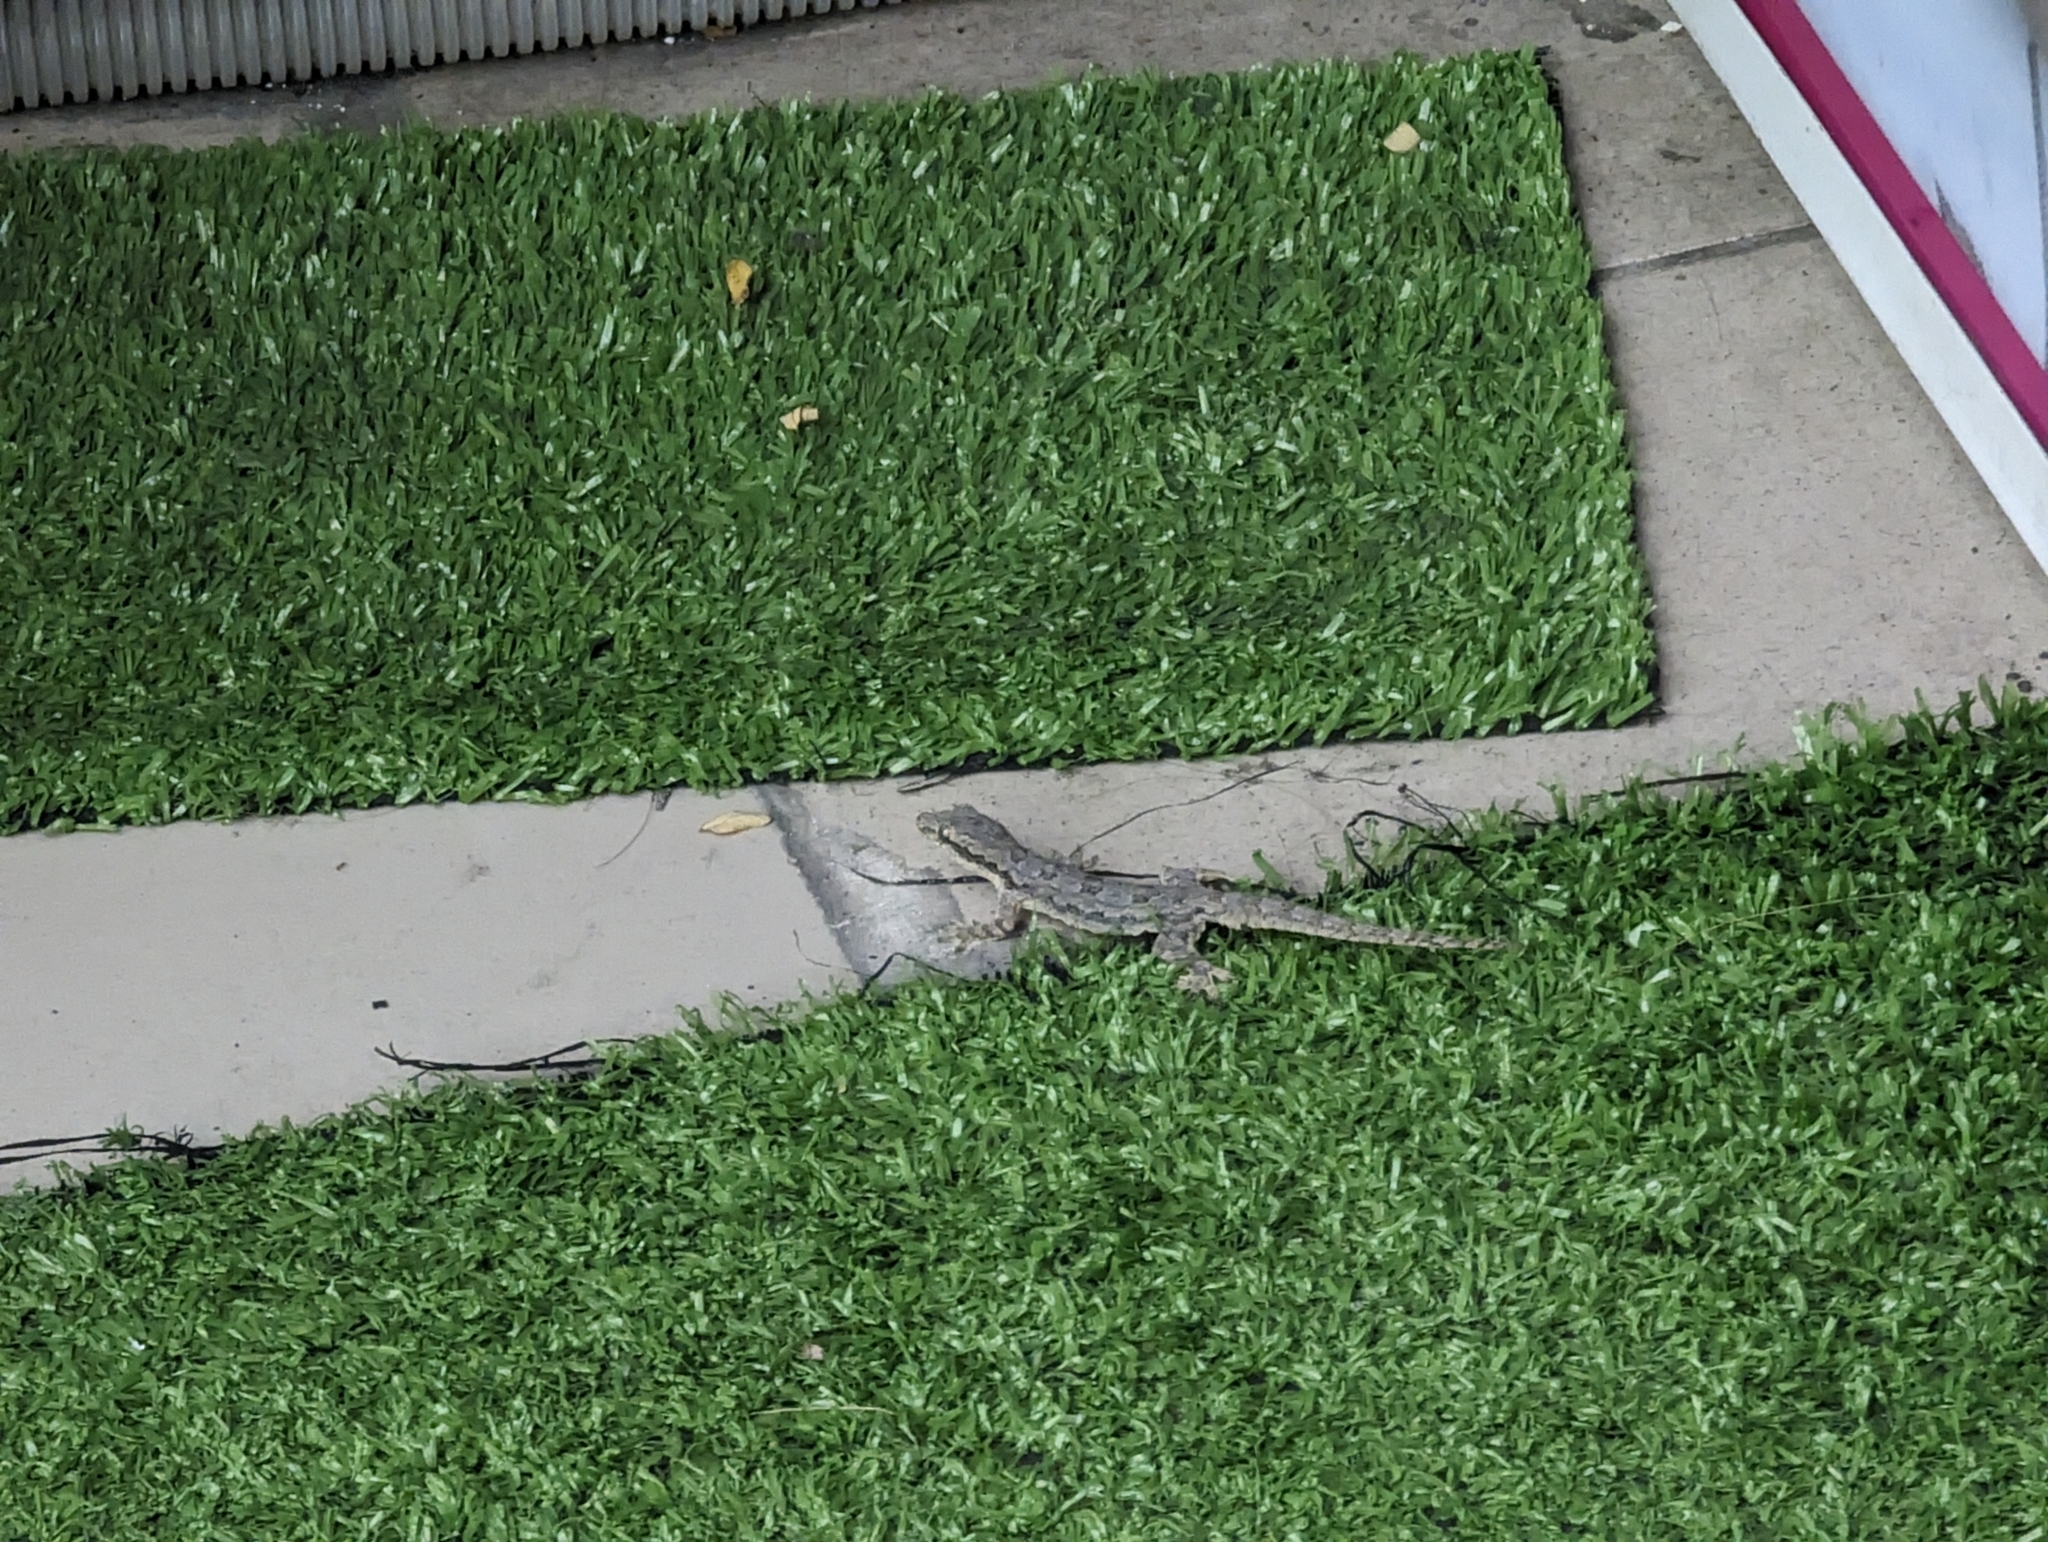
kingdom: Animalia
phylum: Chordata
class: Squamata
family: Gekkonidae
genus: Hemidactylus
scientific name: Hemidactylus platyurus
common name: Flat-tailed house gecko
